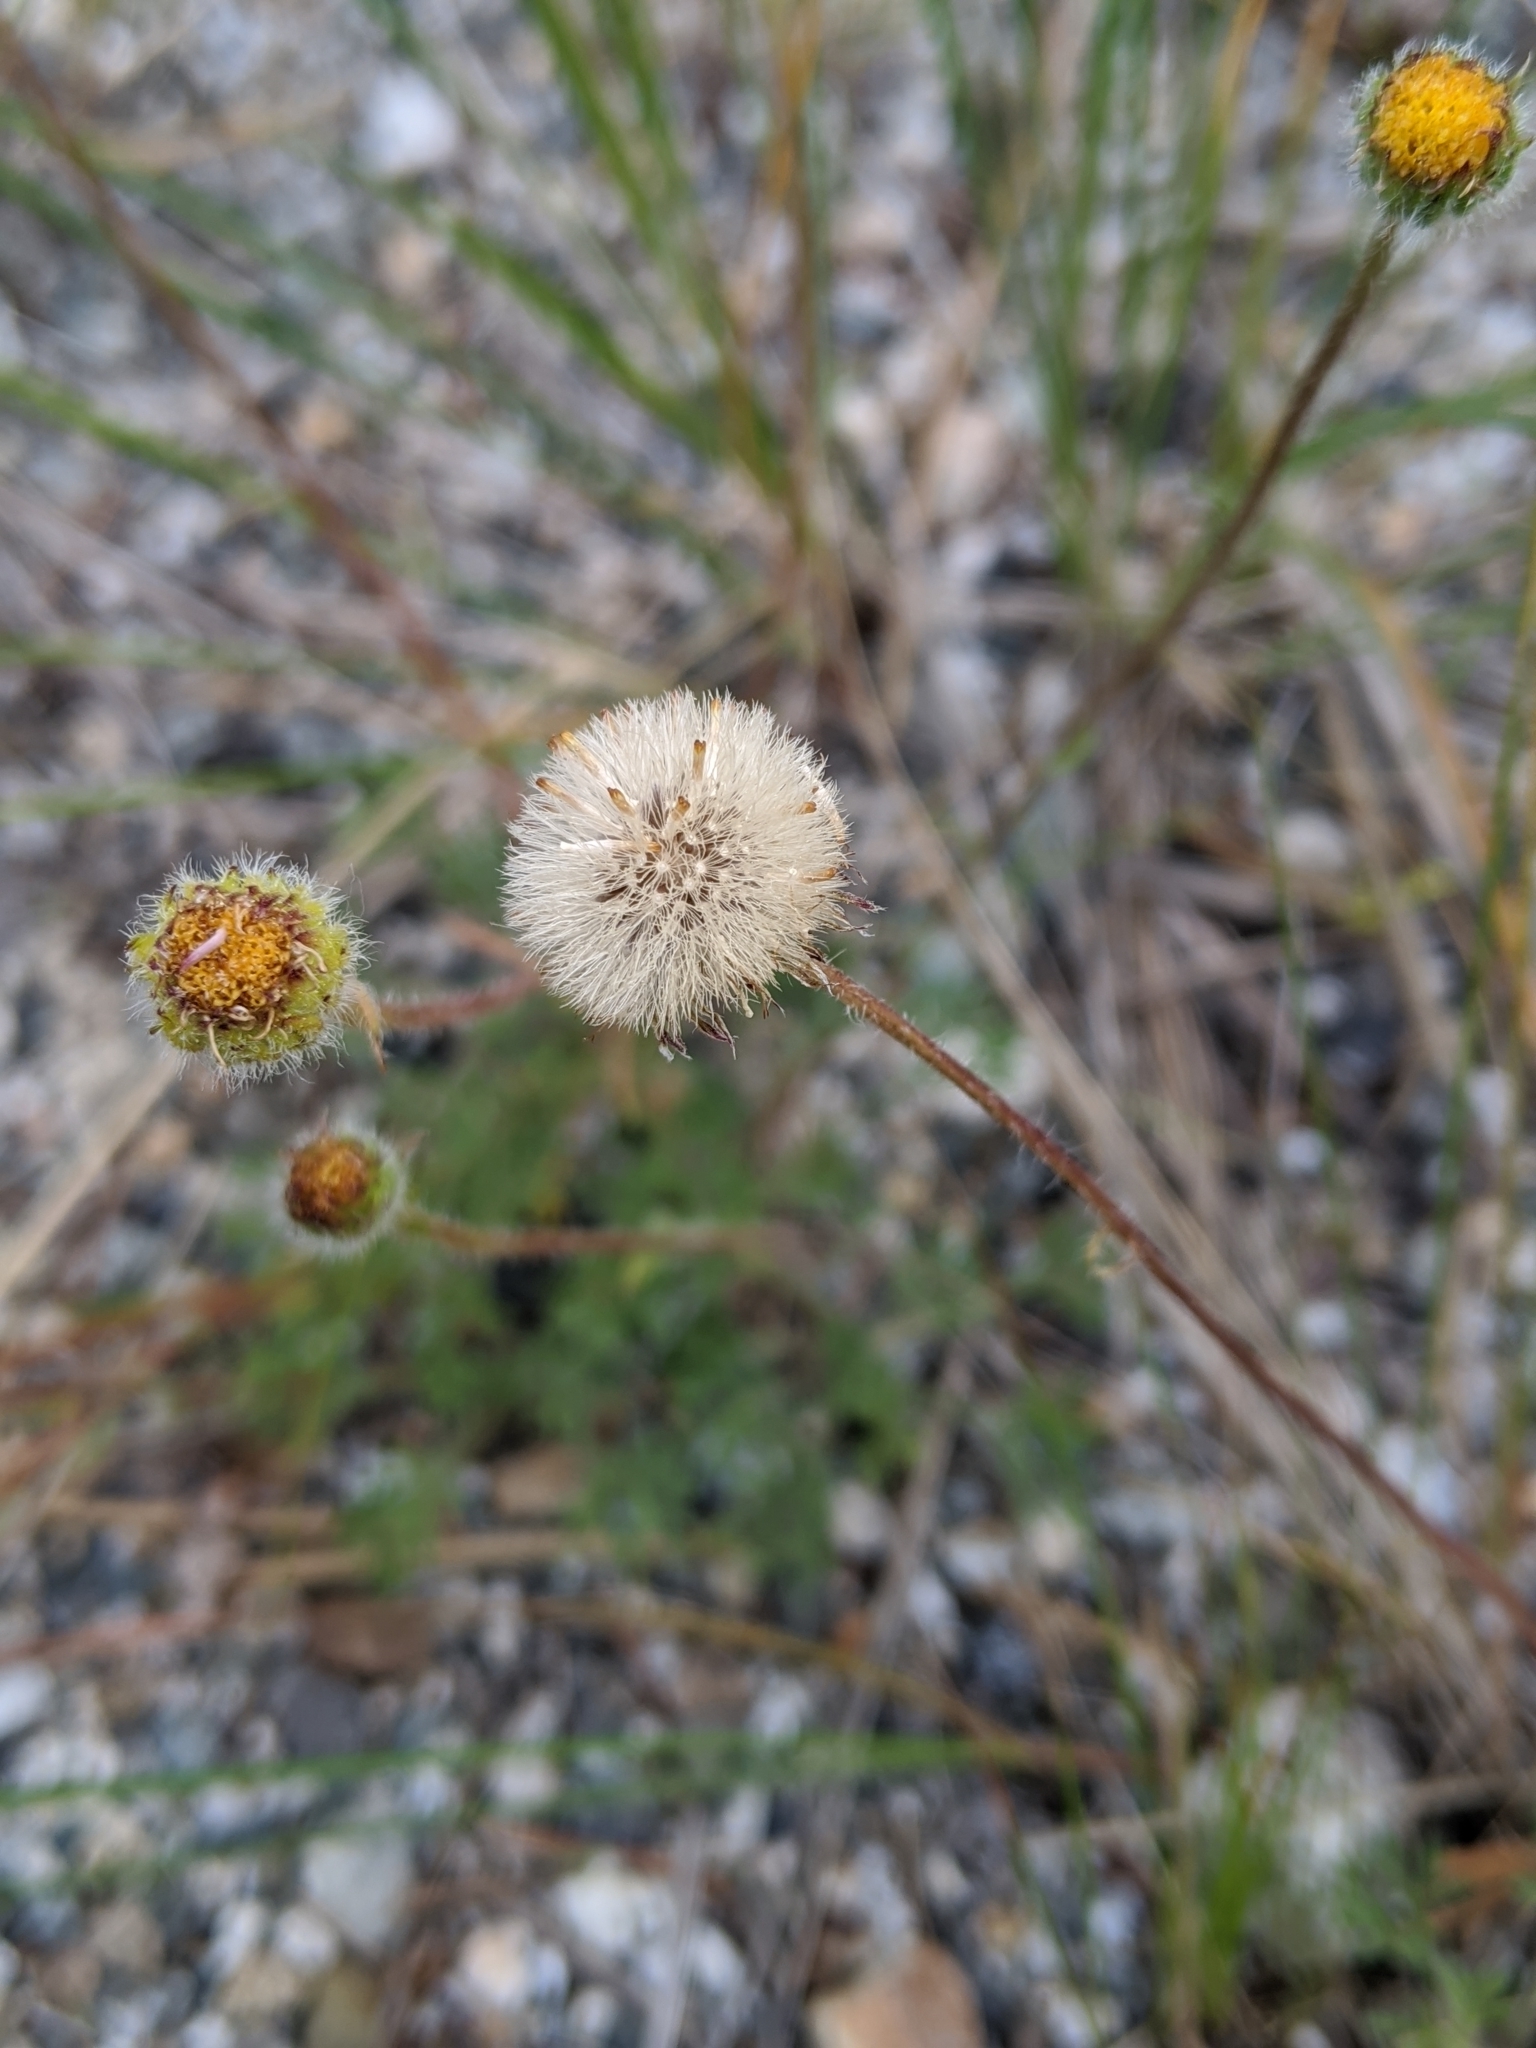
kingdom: Plantae
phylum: Tracheophyta
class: Magnoliopsida
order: Asterales
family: Asteraceae
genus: Erigeron
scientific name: Erigeron compositus
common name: Dwarf mountain fleabane
